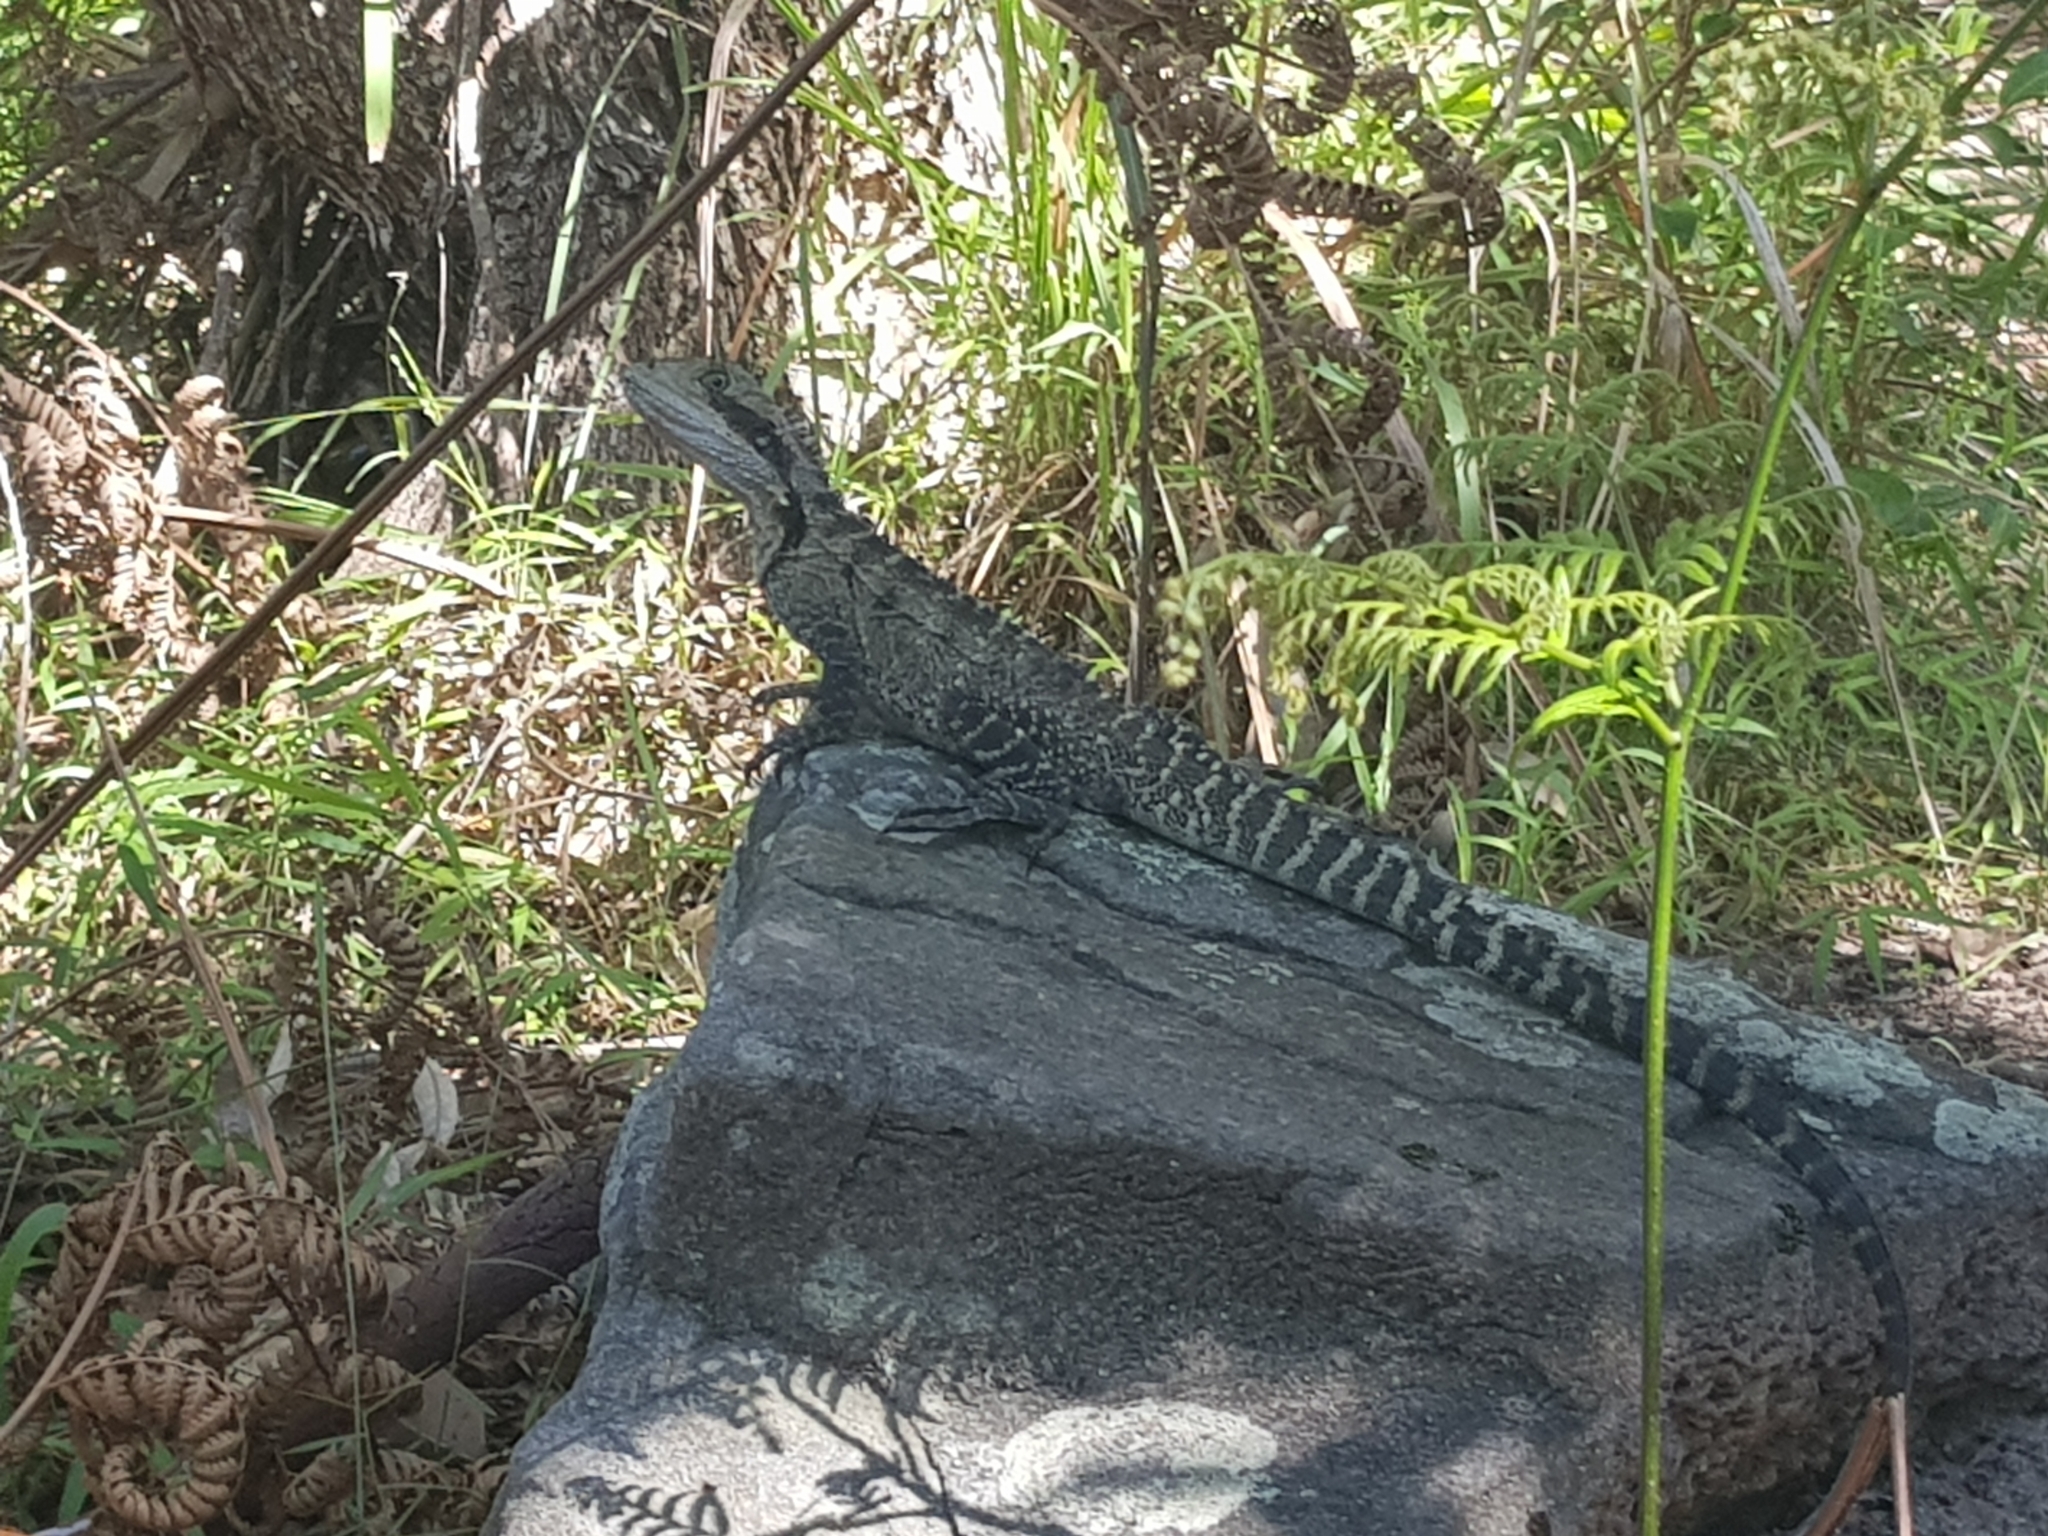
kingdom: Animalia
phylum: Chordata
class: Squamata
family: Agamidae
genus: Intellagama
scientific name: Intellagama lesueurii
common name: Eastern water dragon
